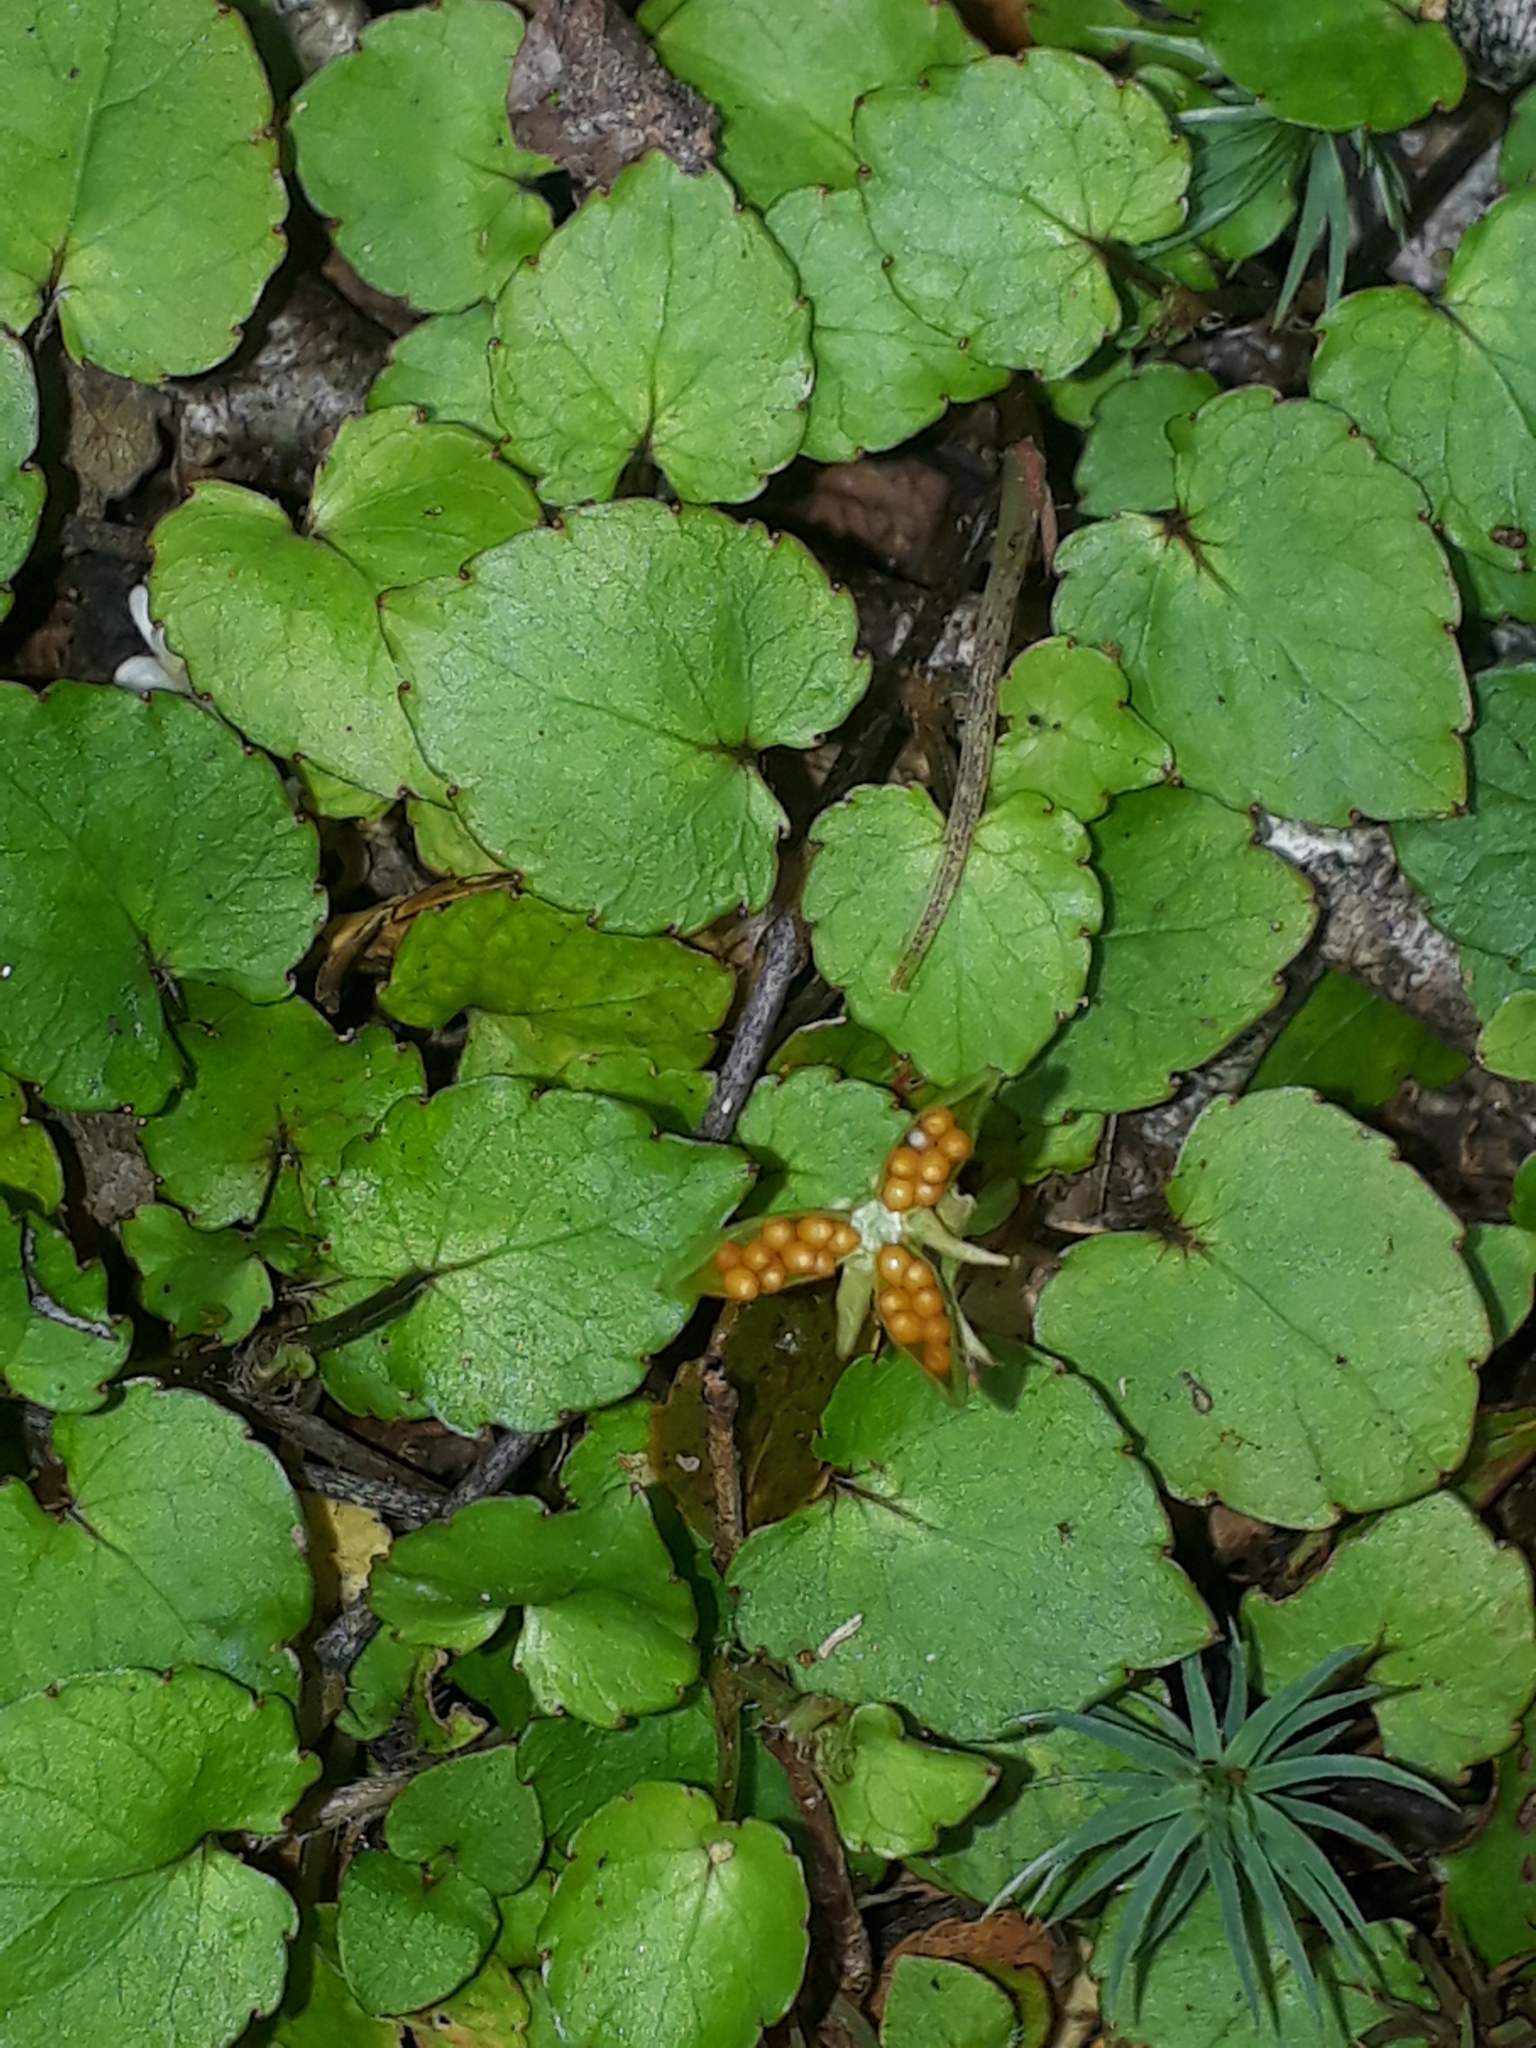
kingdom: Plantae
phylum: Tracheophyta
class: Magnoliopsida
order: Malpighiales
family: Violaceae
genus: Viola
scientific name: Viola filicaulis
